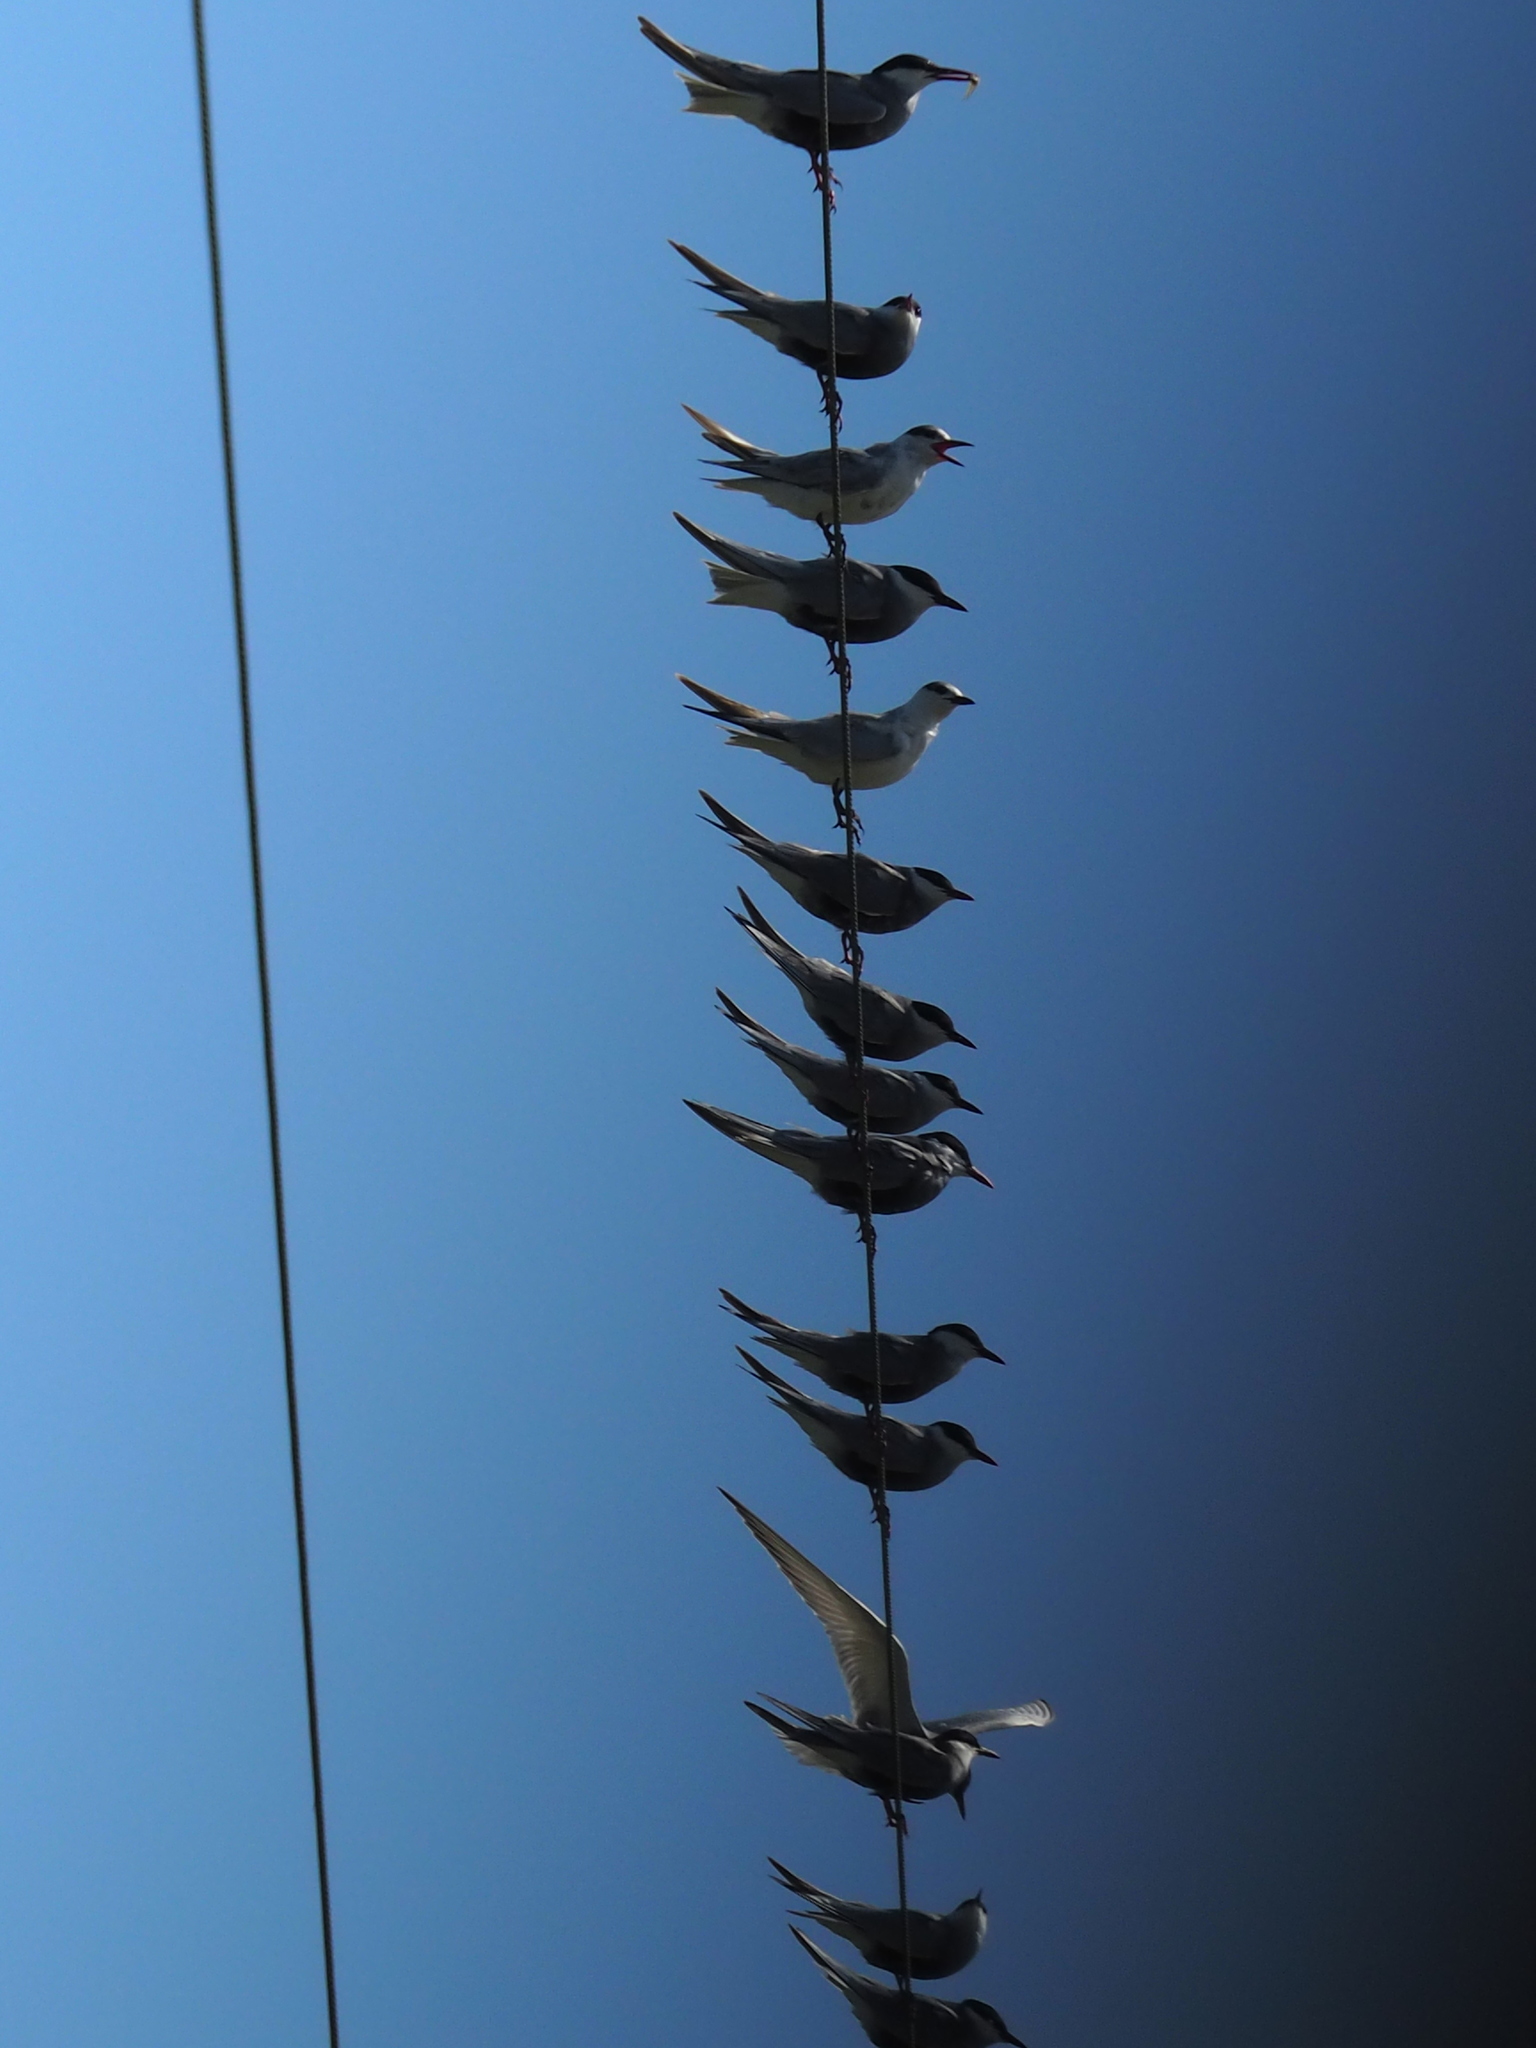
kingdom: Animalia
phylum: Chordata
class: Aves
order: Charadriiformes
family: Laridae
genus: Chlidonias
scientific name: Chlidonias hybrida
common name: Whiskered tern
